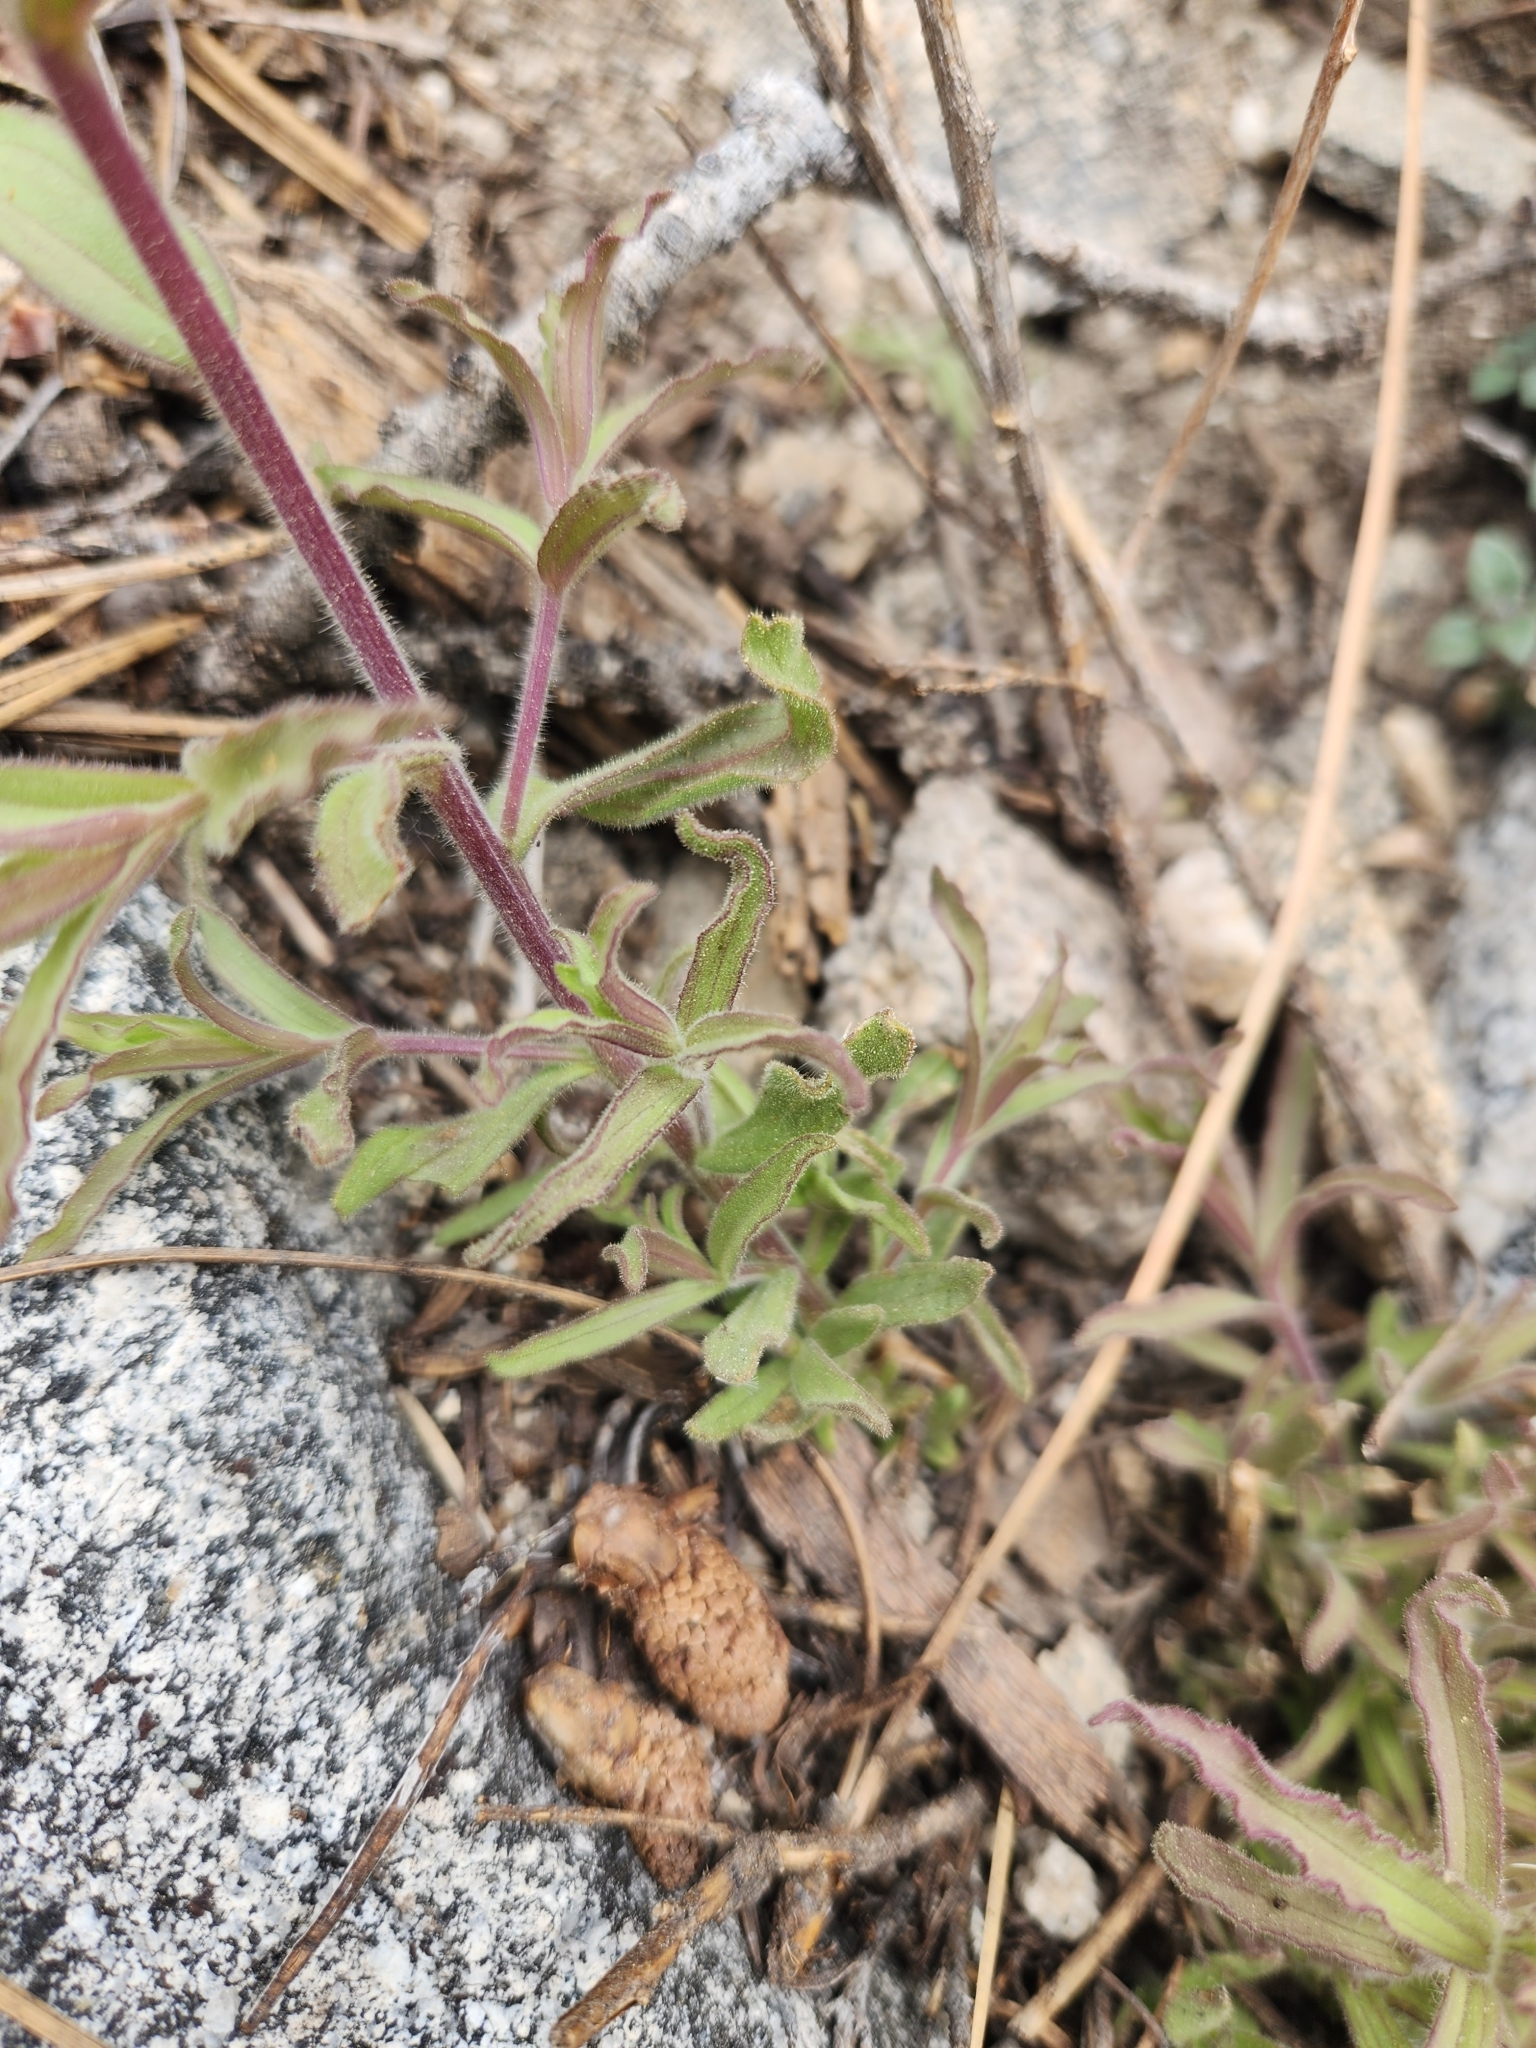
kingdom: Plantae
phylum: Tracheophyta
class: Magnoliopsida
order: Lamiales
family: Orobanchaceae
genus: Castilleja
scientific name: Castilleja martini
